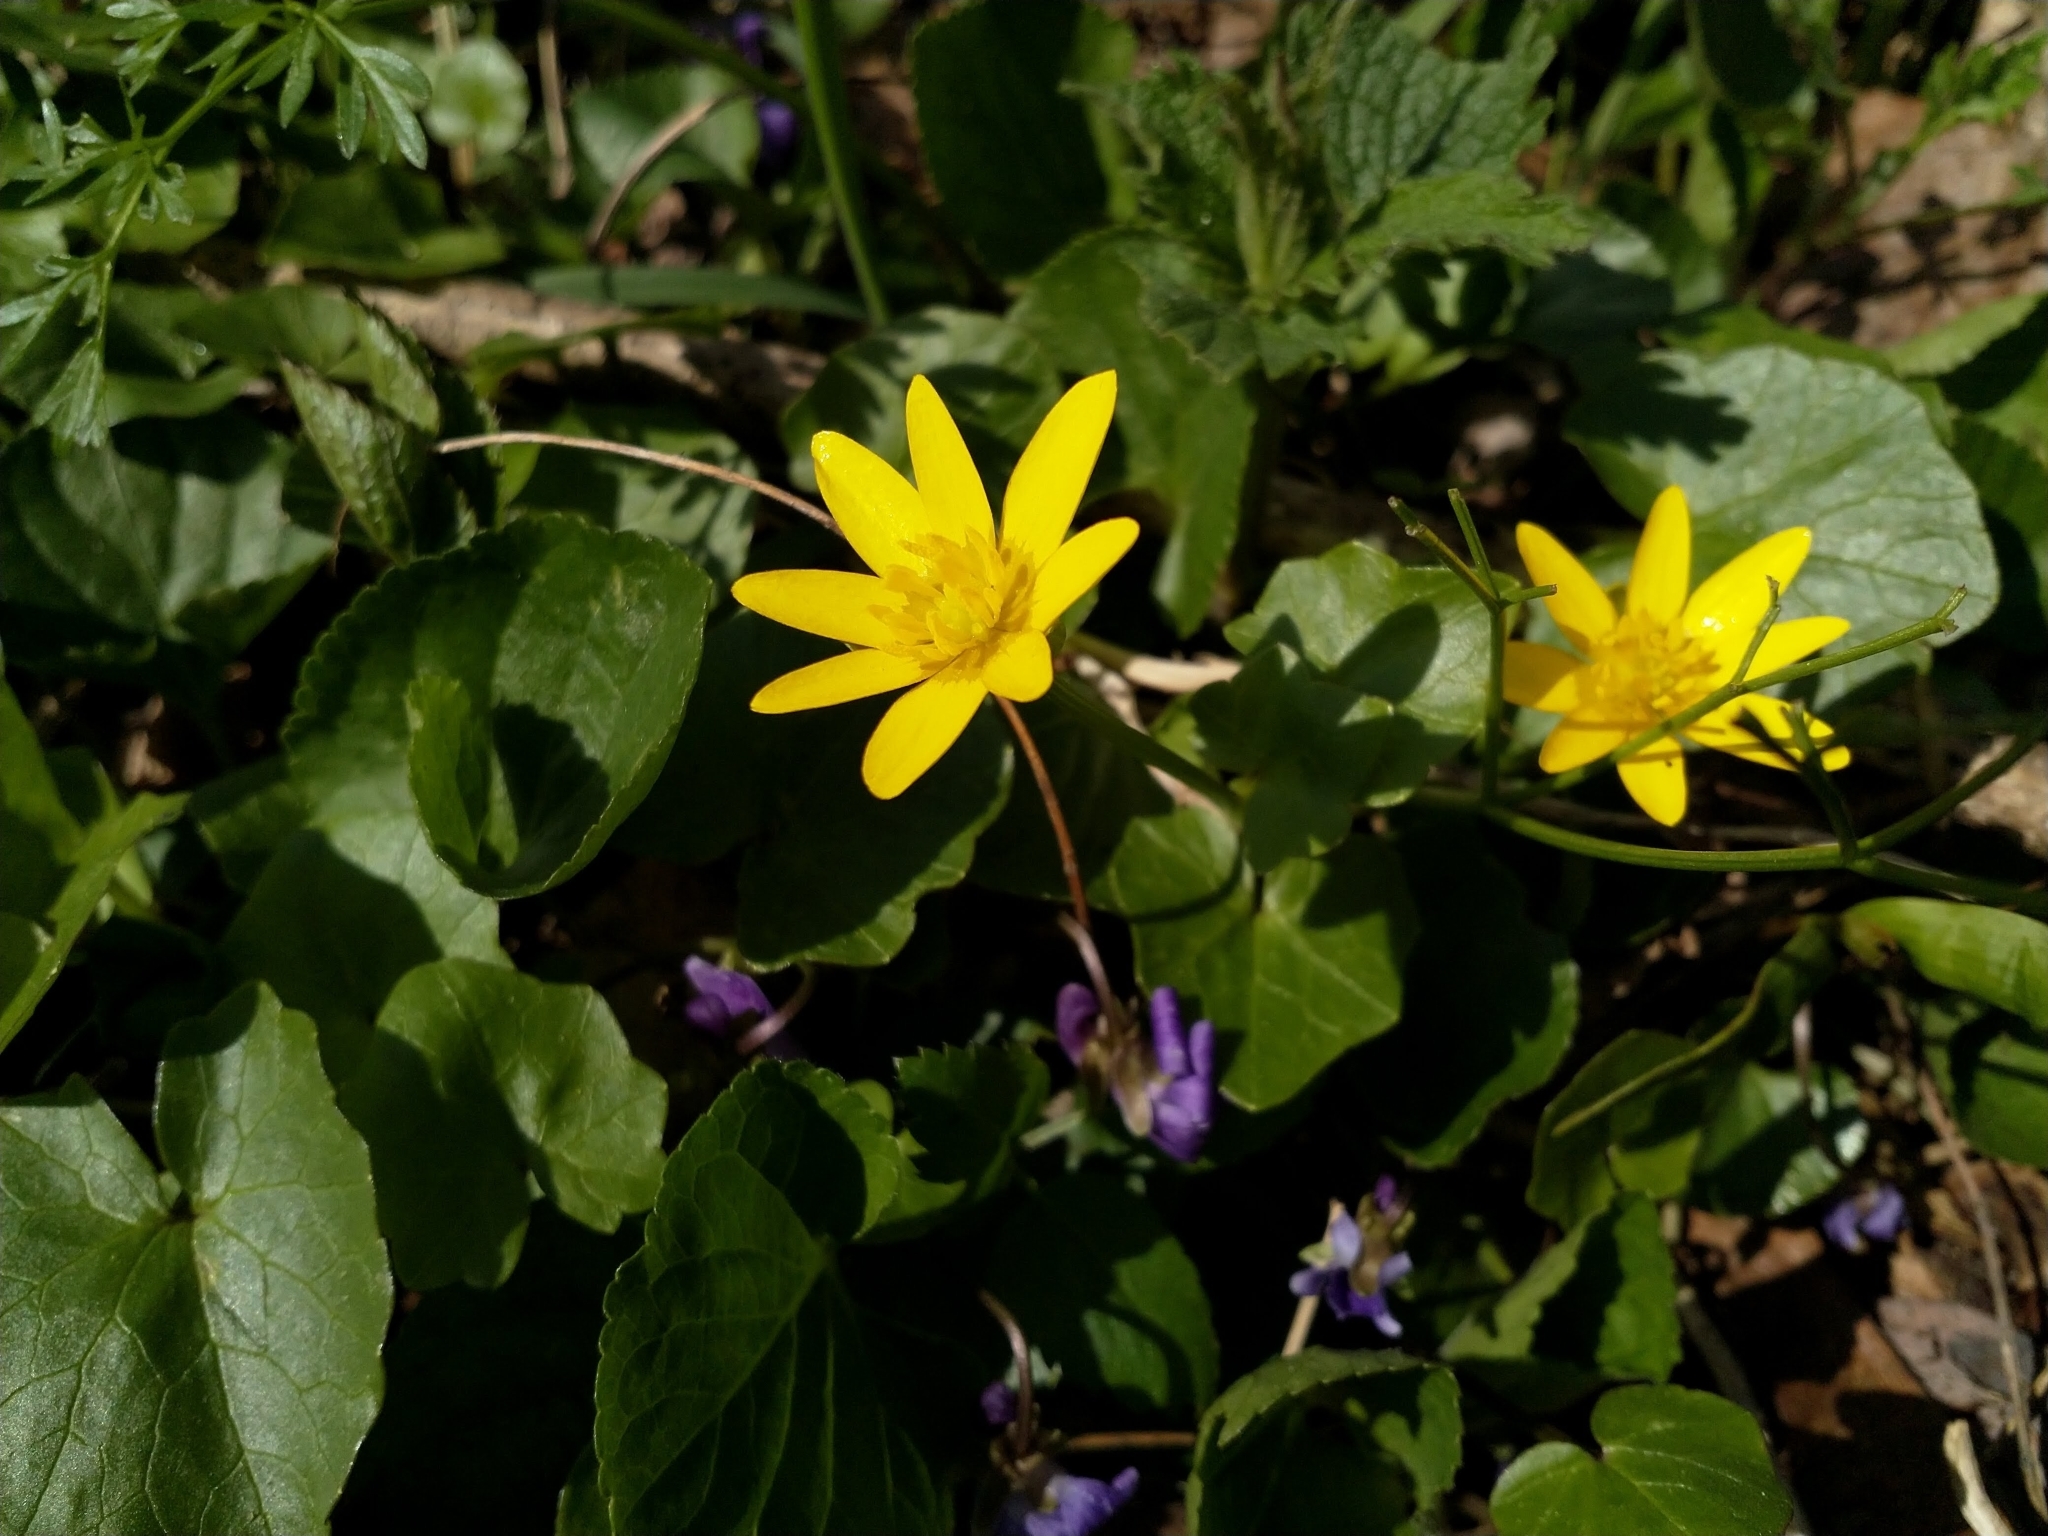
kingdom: Plantae
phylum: Tracheophyta
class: Magnoliopsida
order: Ranunculales
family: Ranunculaceae
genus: Ficaria
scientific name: Ficaria verna
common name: Lesser celandine
